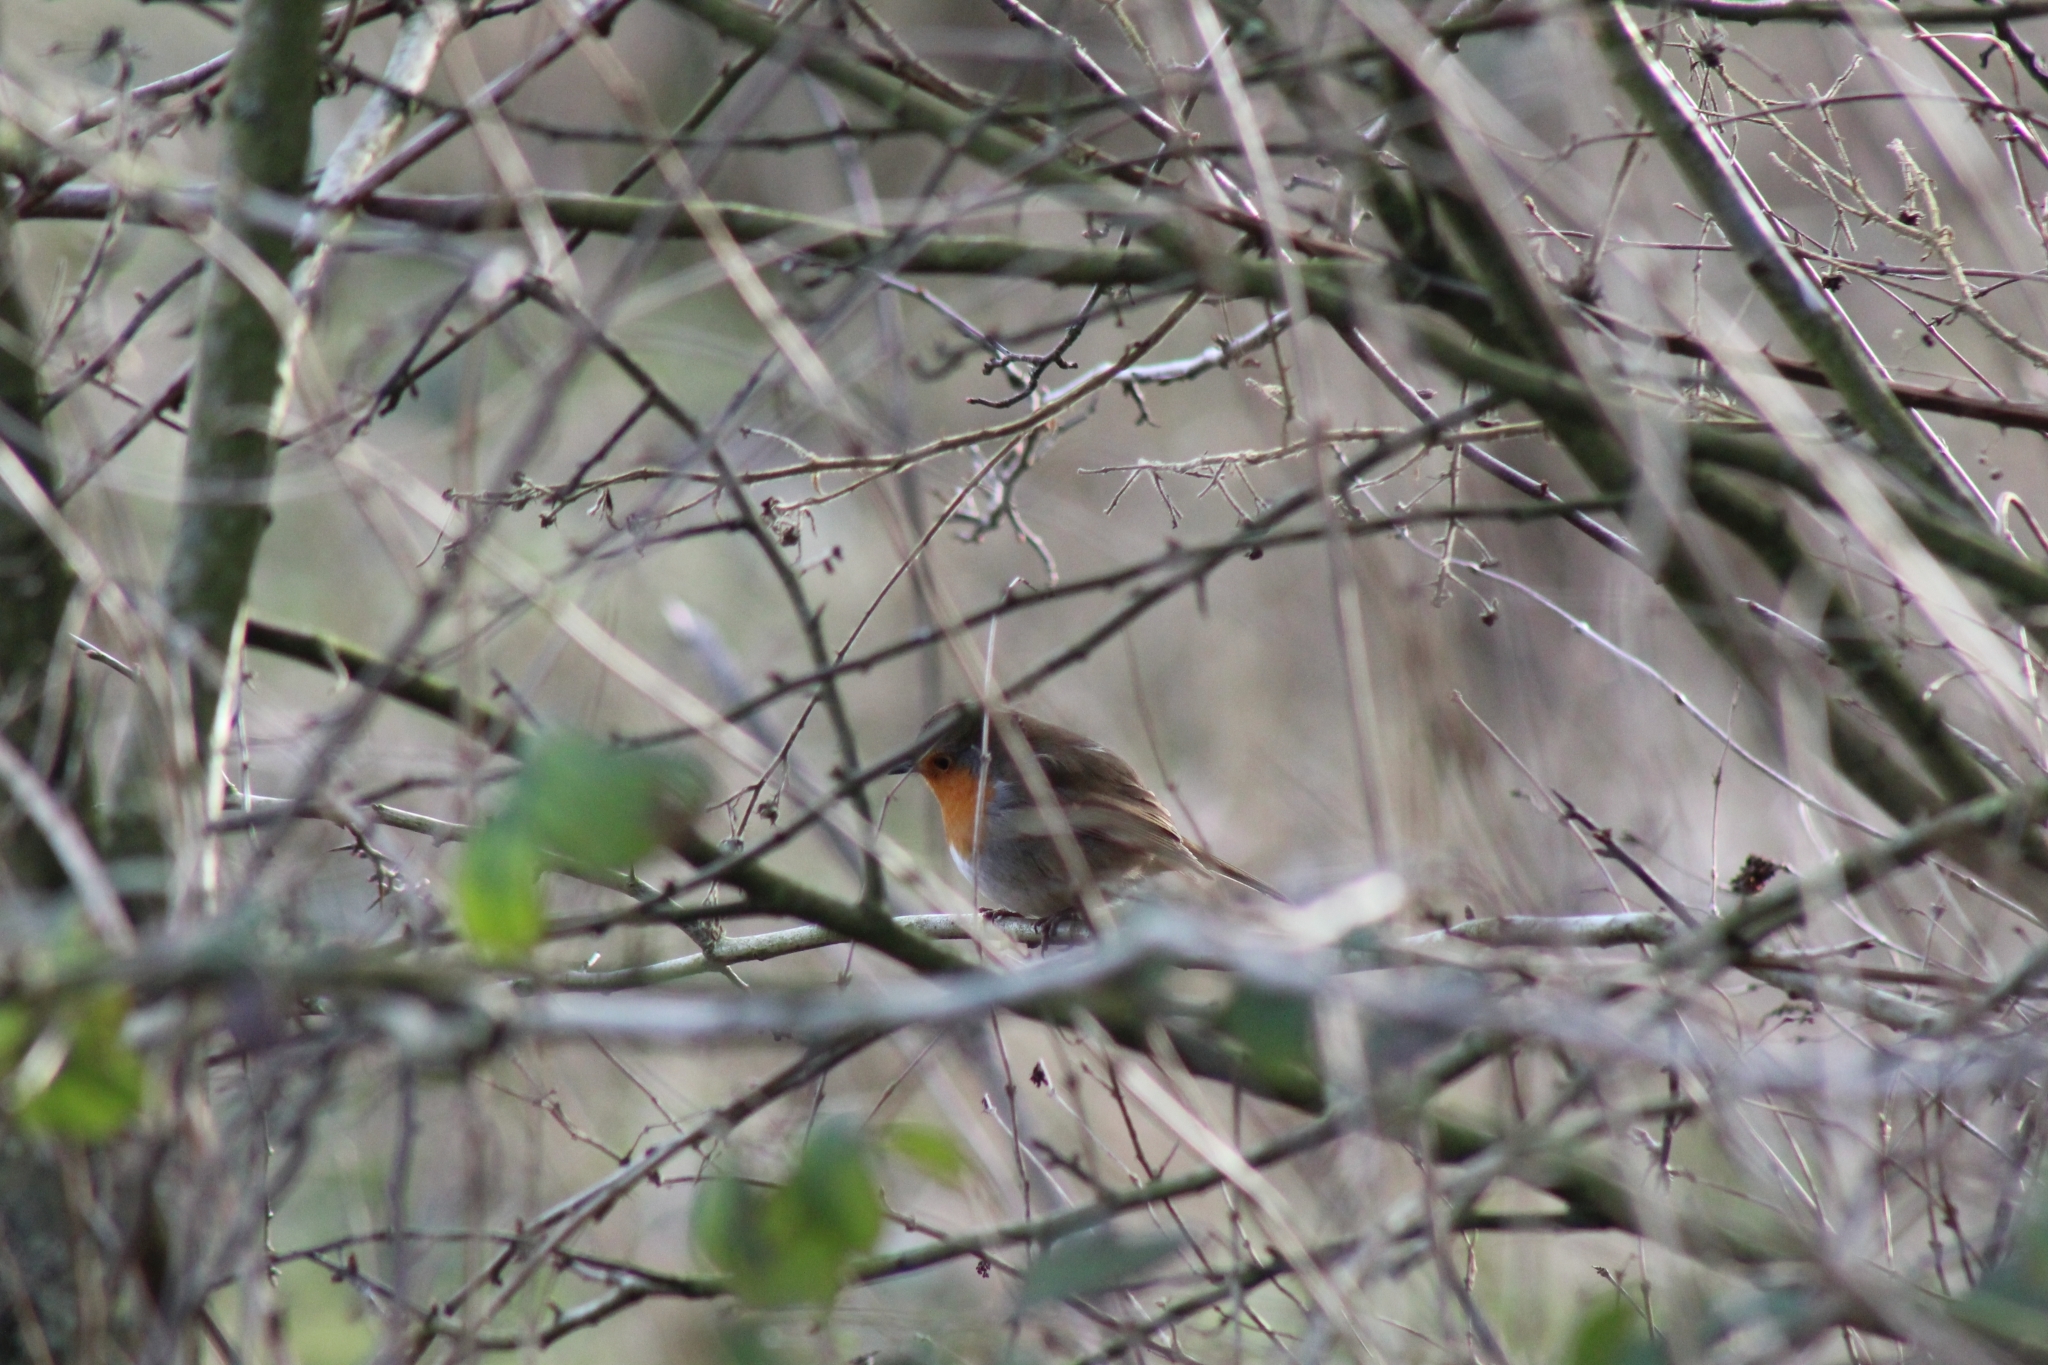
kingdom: Animalia
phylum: Chordata
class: Aves
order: Passeriformes
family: Muscicapidae
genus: Erithacus
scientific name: Erithacus rubecula
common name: European robin
